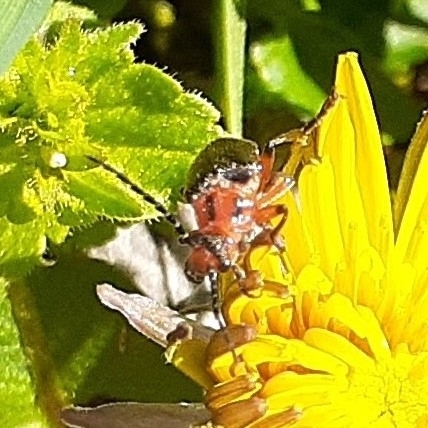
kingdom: Animalia
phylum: Arthropoda
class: Insecta
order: Coleoptera
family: Cantharidae
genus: Atalantycha
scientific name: Atalantycha bilineata
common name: Two-lined leatherwing
